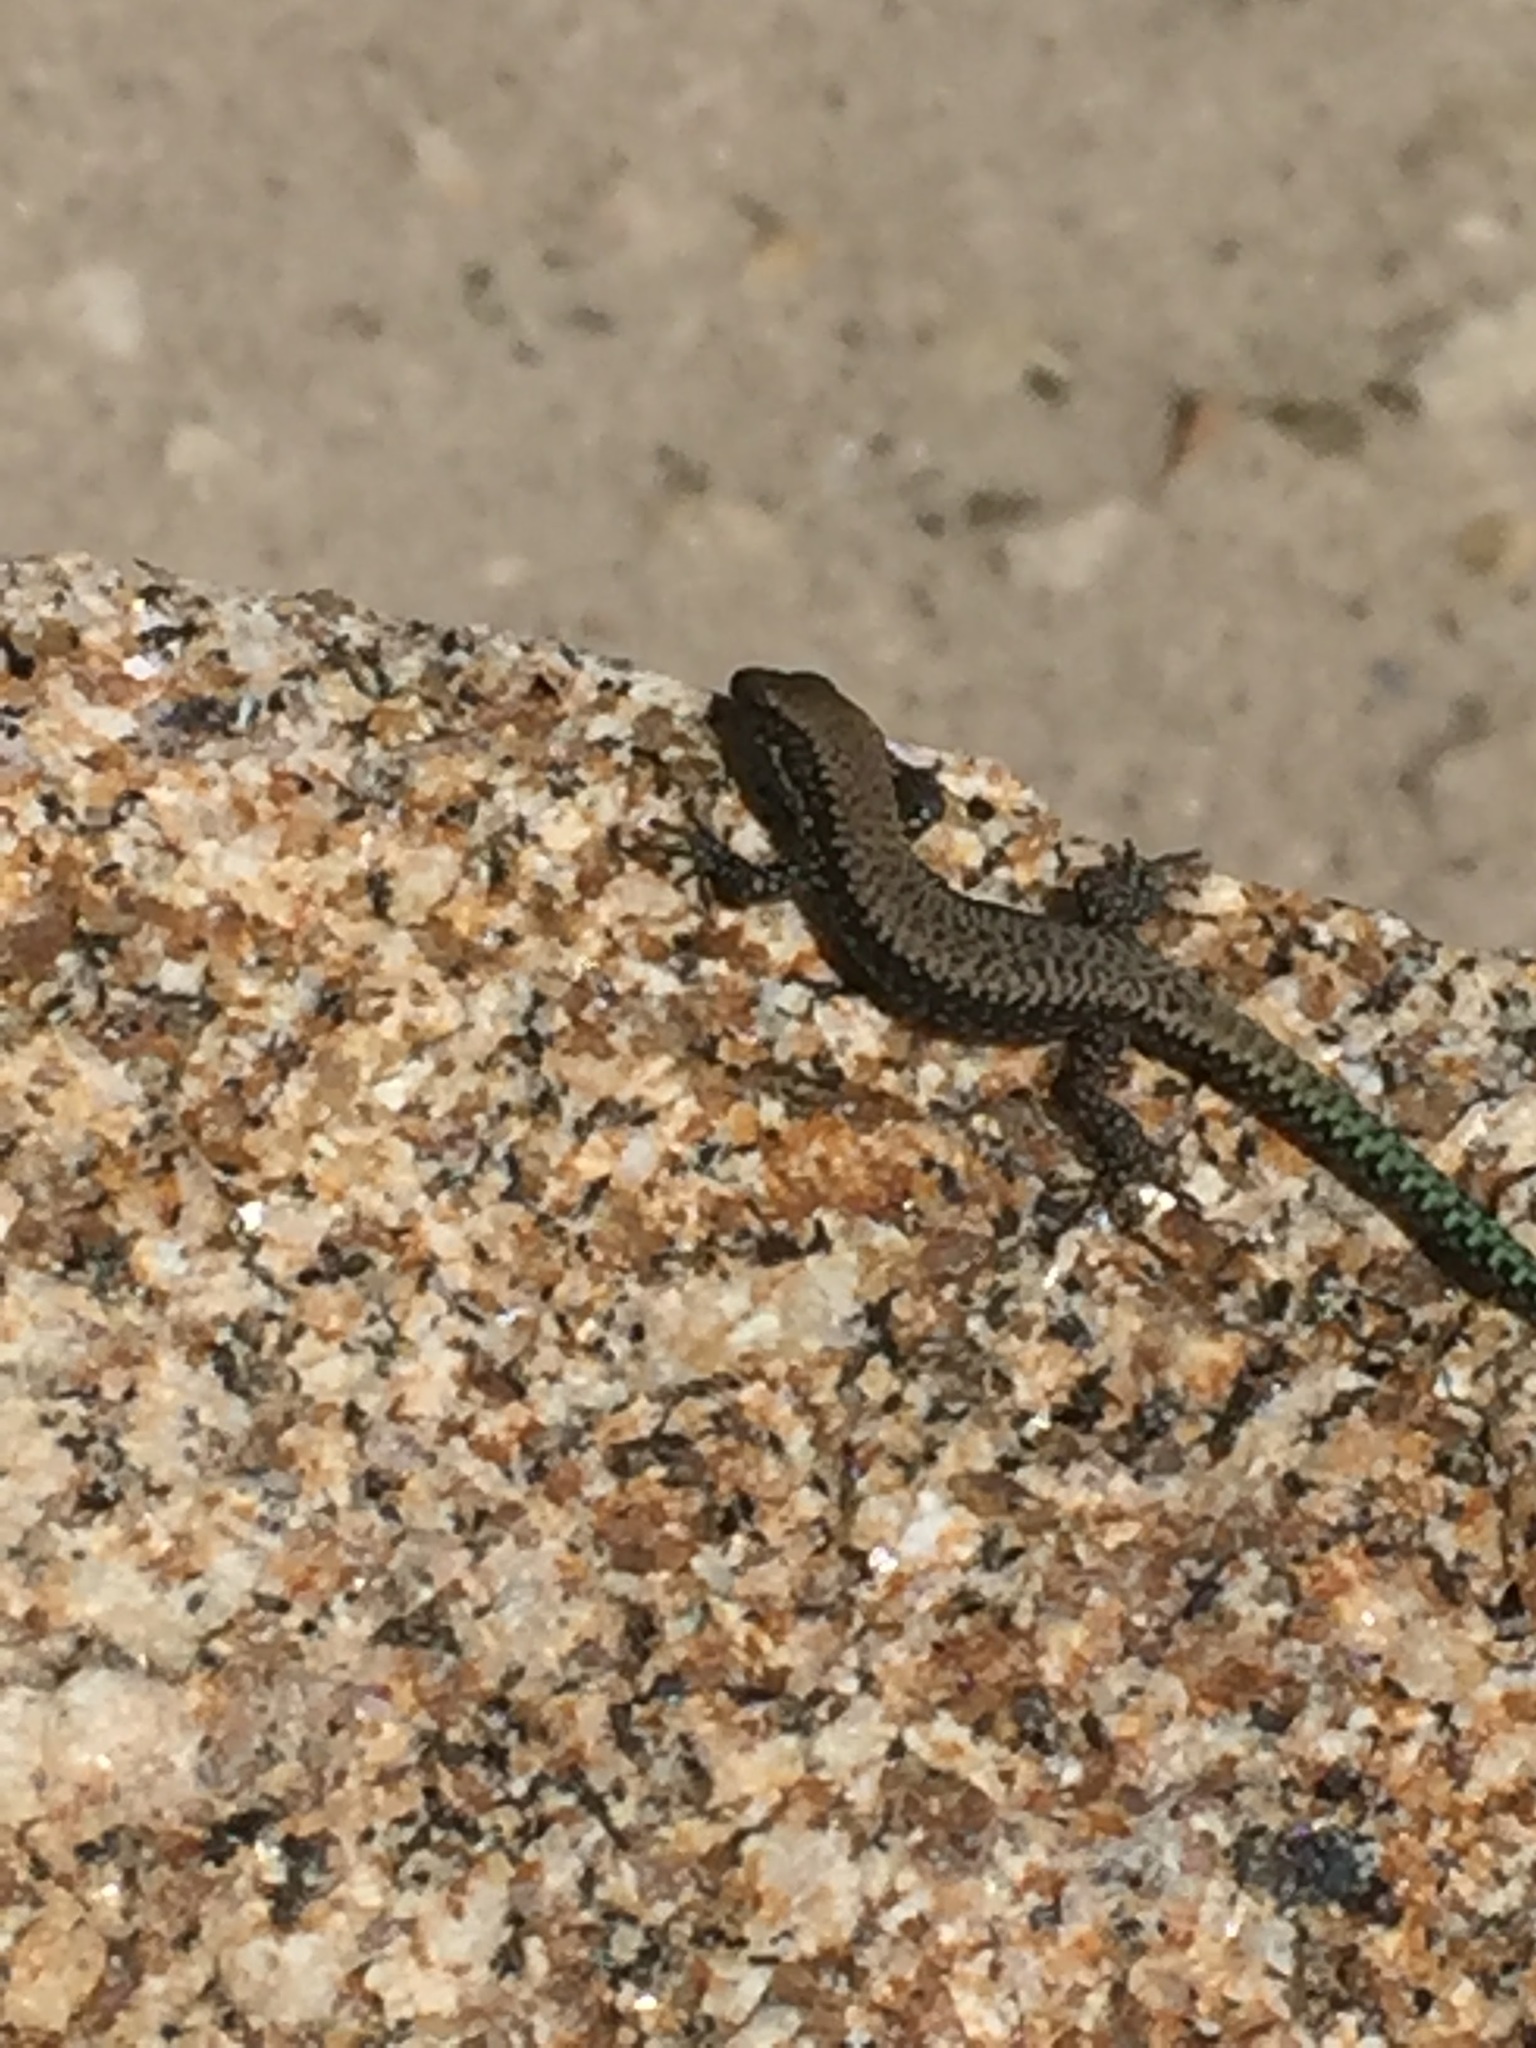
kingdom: Animalia
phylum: Chordata
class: Squamata
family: Lacertidae
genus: Iberolacerta
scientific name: Iberolacerta monticola
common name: Iberian mountain lizard
